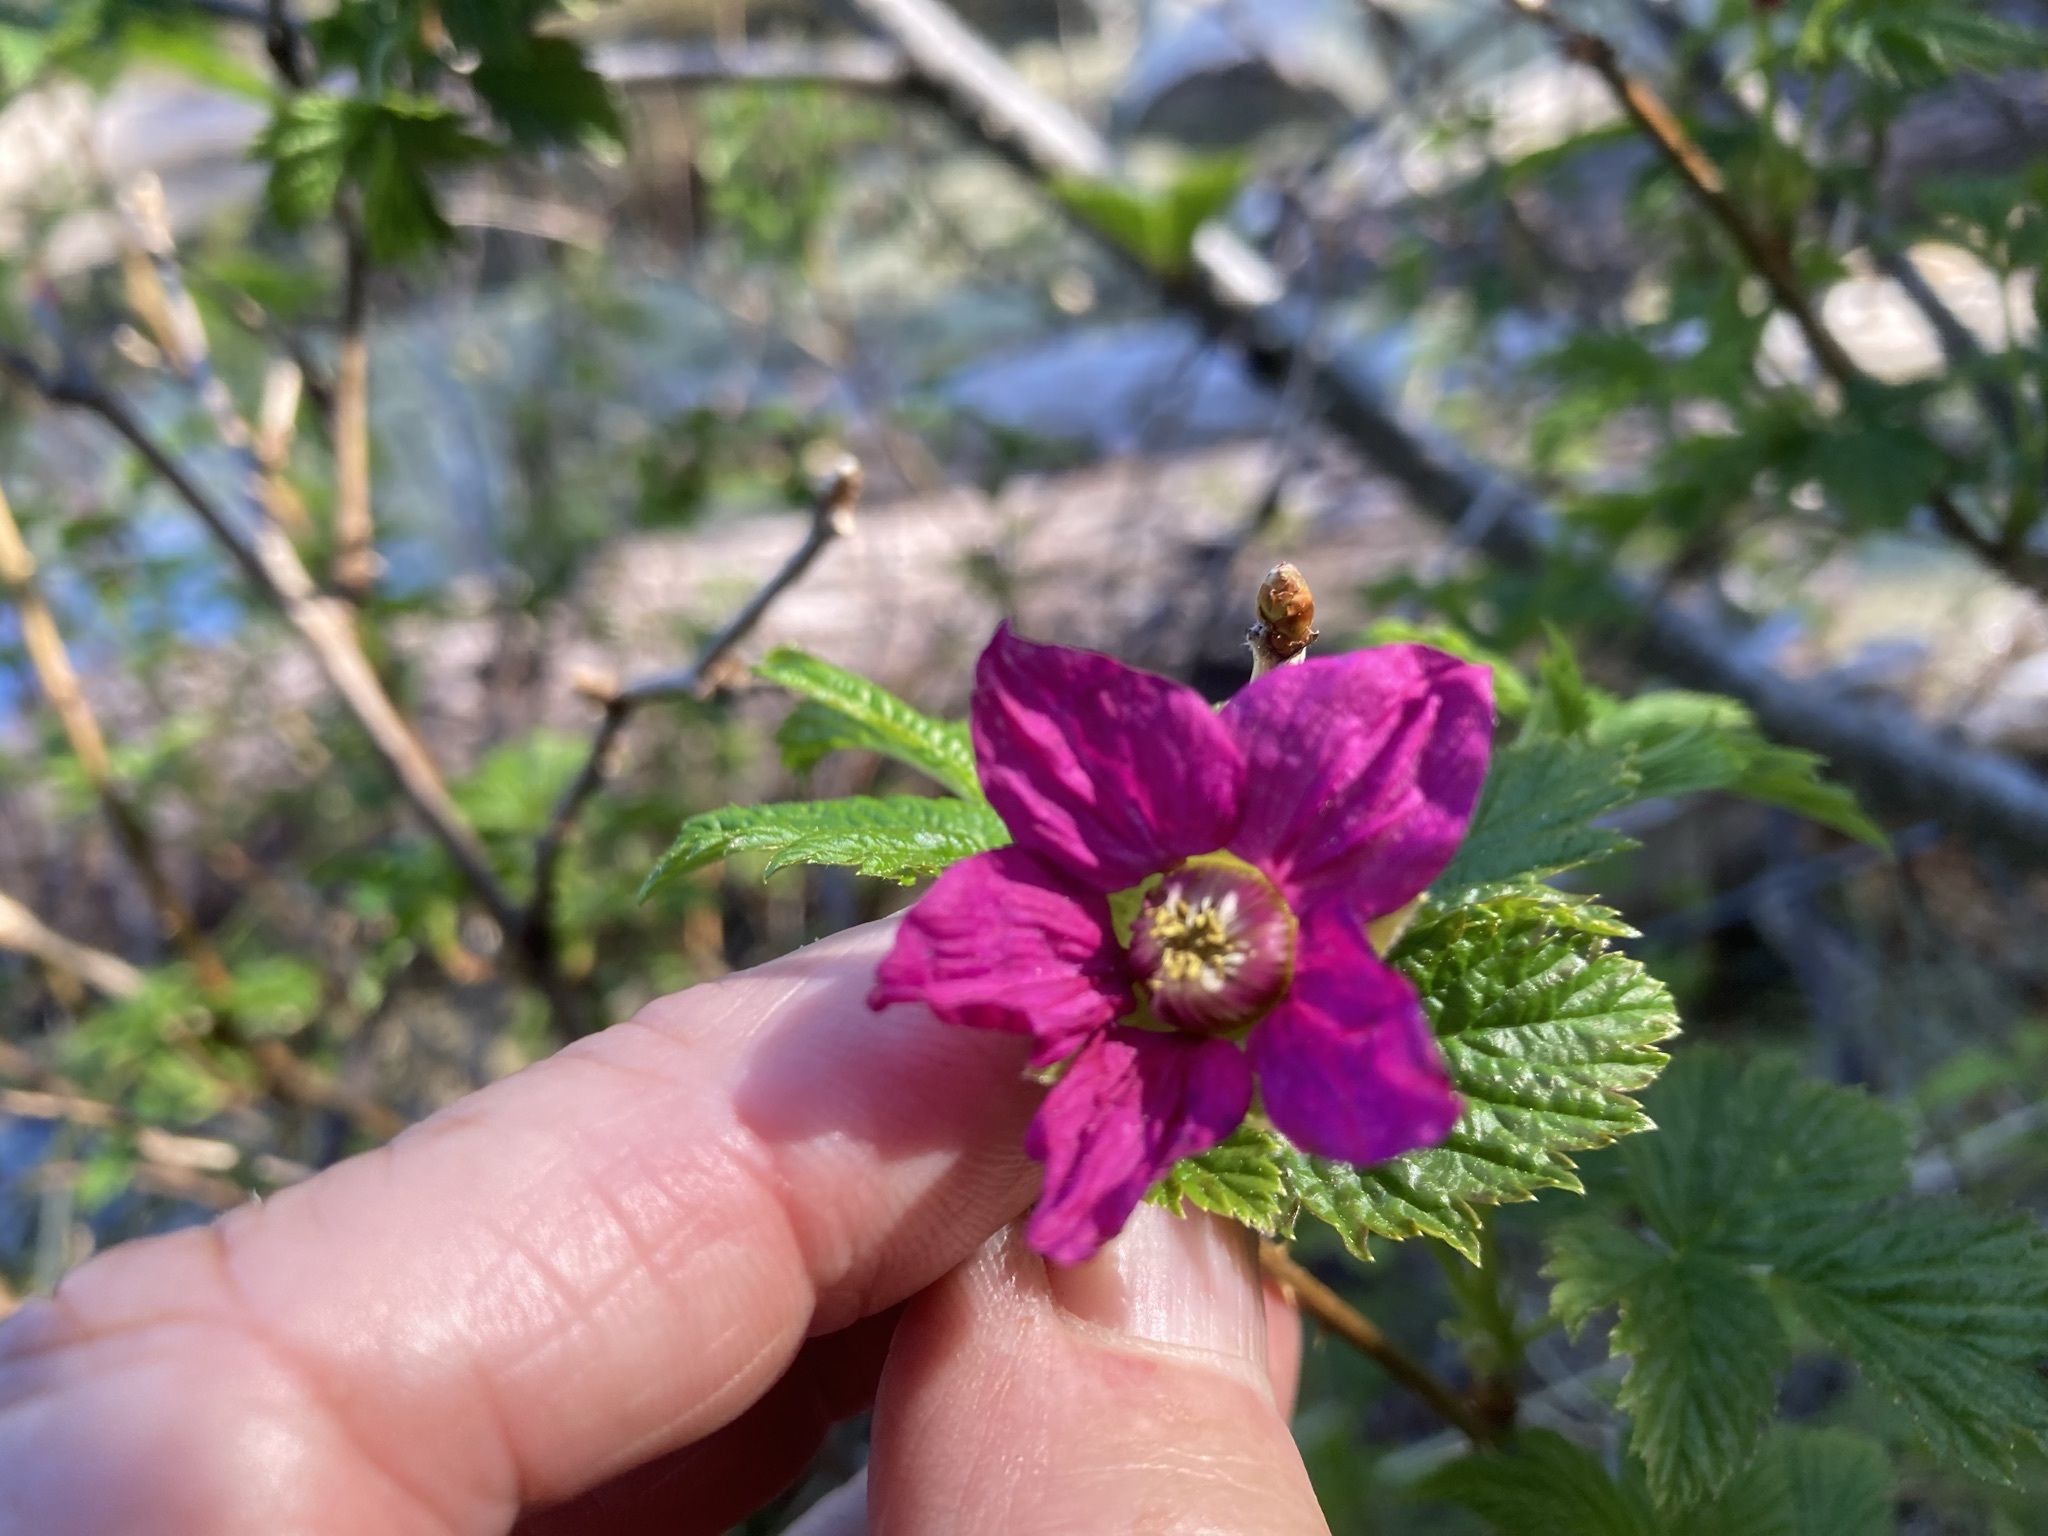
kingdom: Plantae
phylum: Tracheophyta
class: Magnoliopsida
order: Rosales
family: Rosaceae
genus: Rubus
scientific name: Rubus spectabilis
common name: Salmonberry
